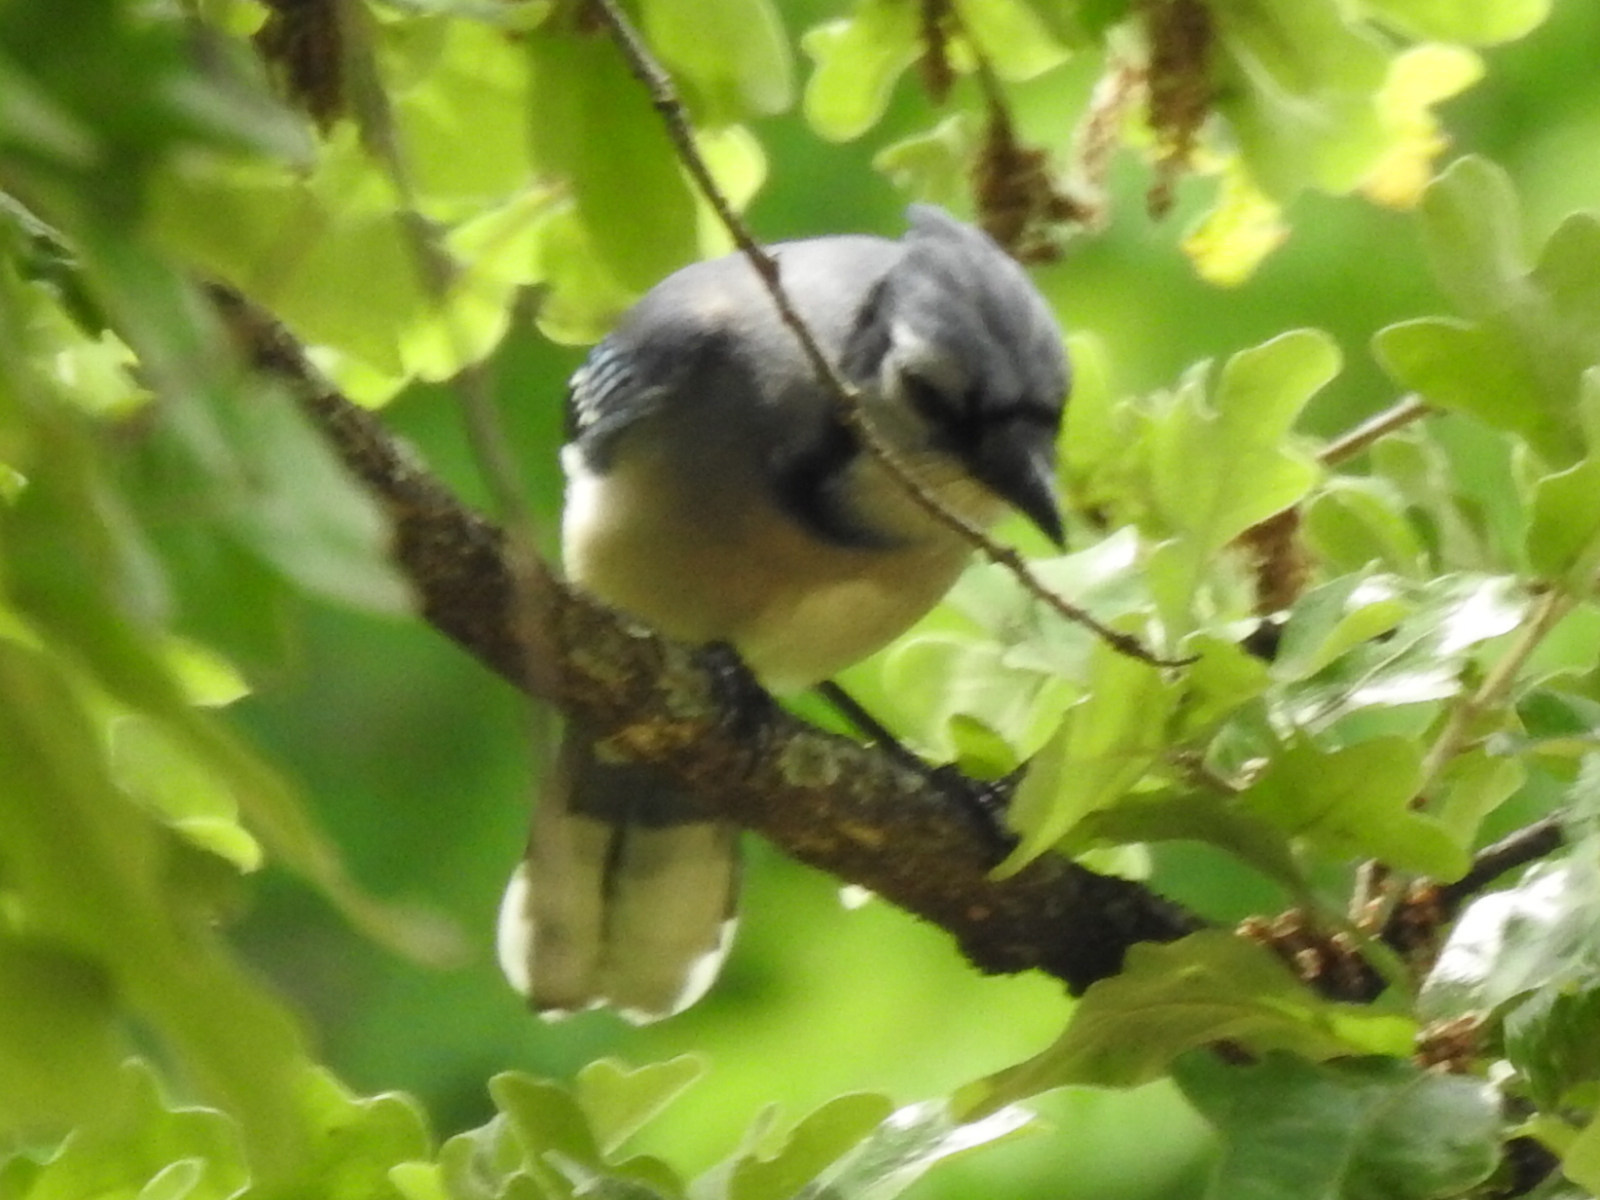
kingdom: Animalia
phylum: Chordata
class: Aves
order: Passeriformes
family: Corvidae
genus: Cyanocitta
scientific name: Cyanocitta cristata
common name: Blue jay
